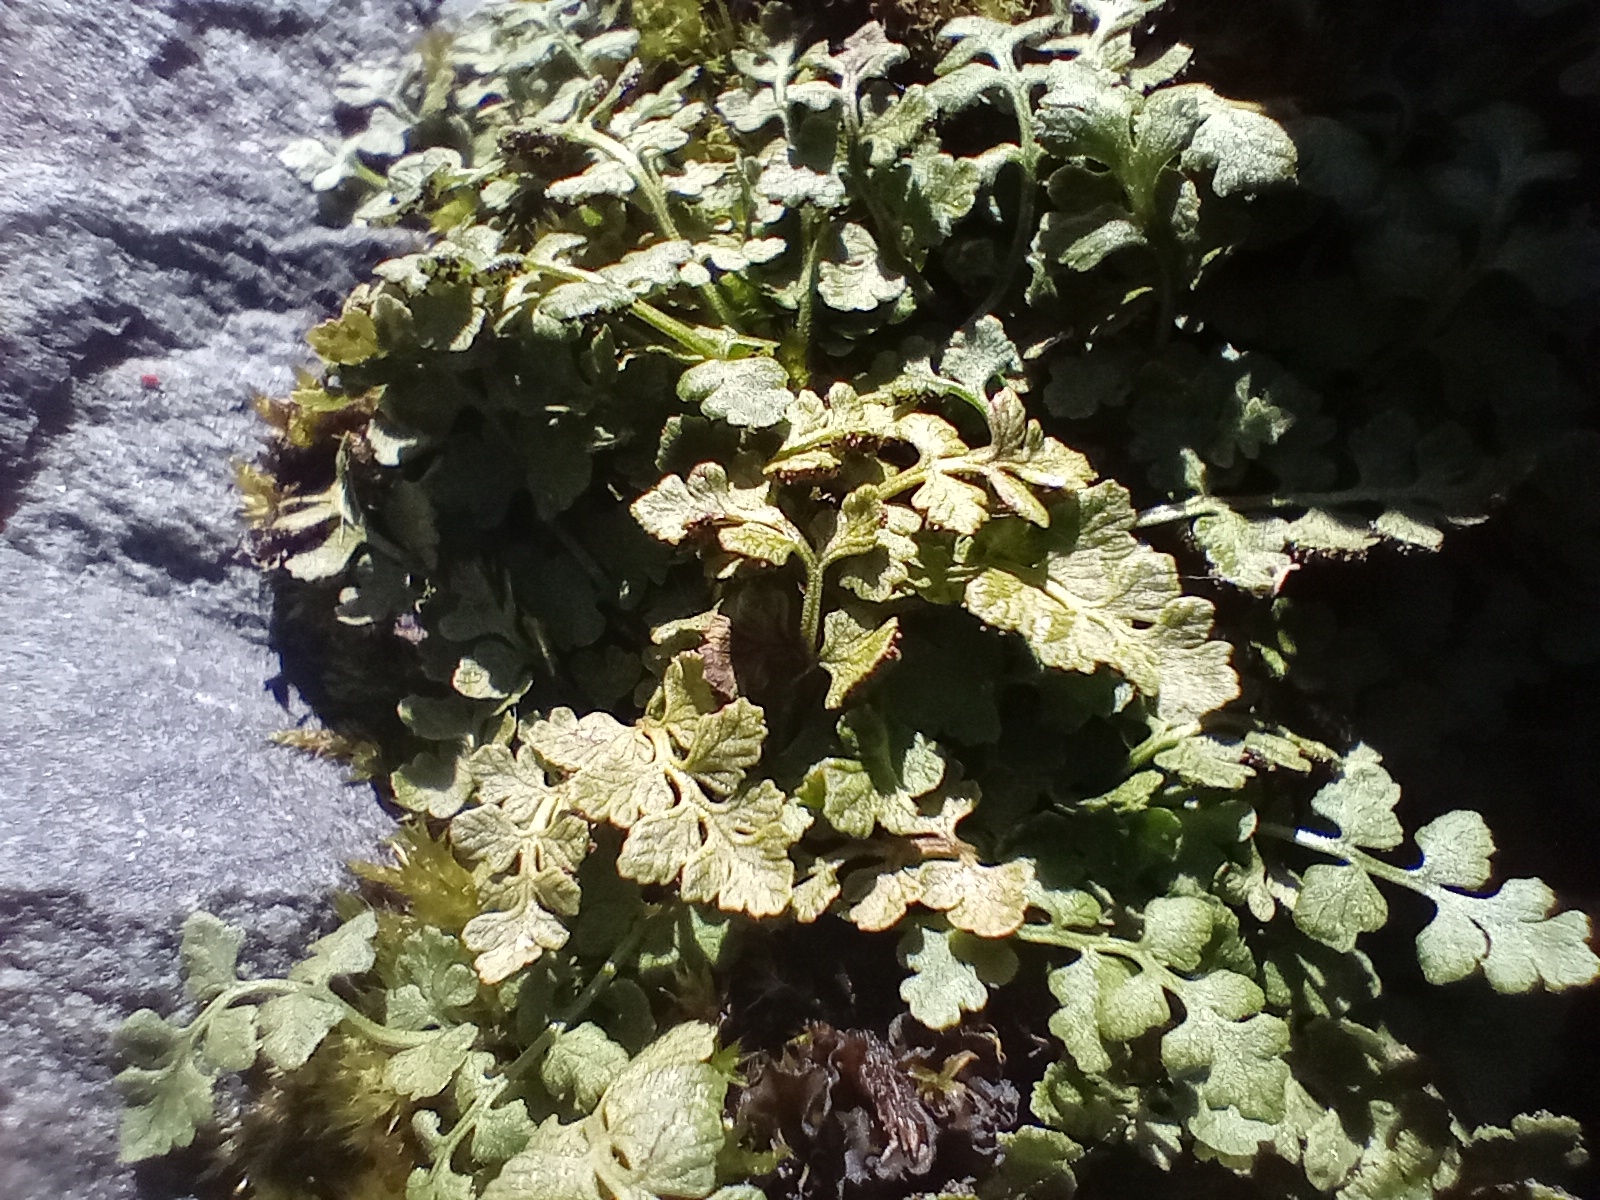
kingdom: Plantae
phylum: Tracheophyta
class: Polypodiopsida
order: Polypodiales
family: Cystopteridaceae
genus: Cystopteris
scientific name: Cystopteris tasmanica
